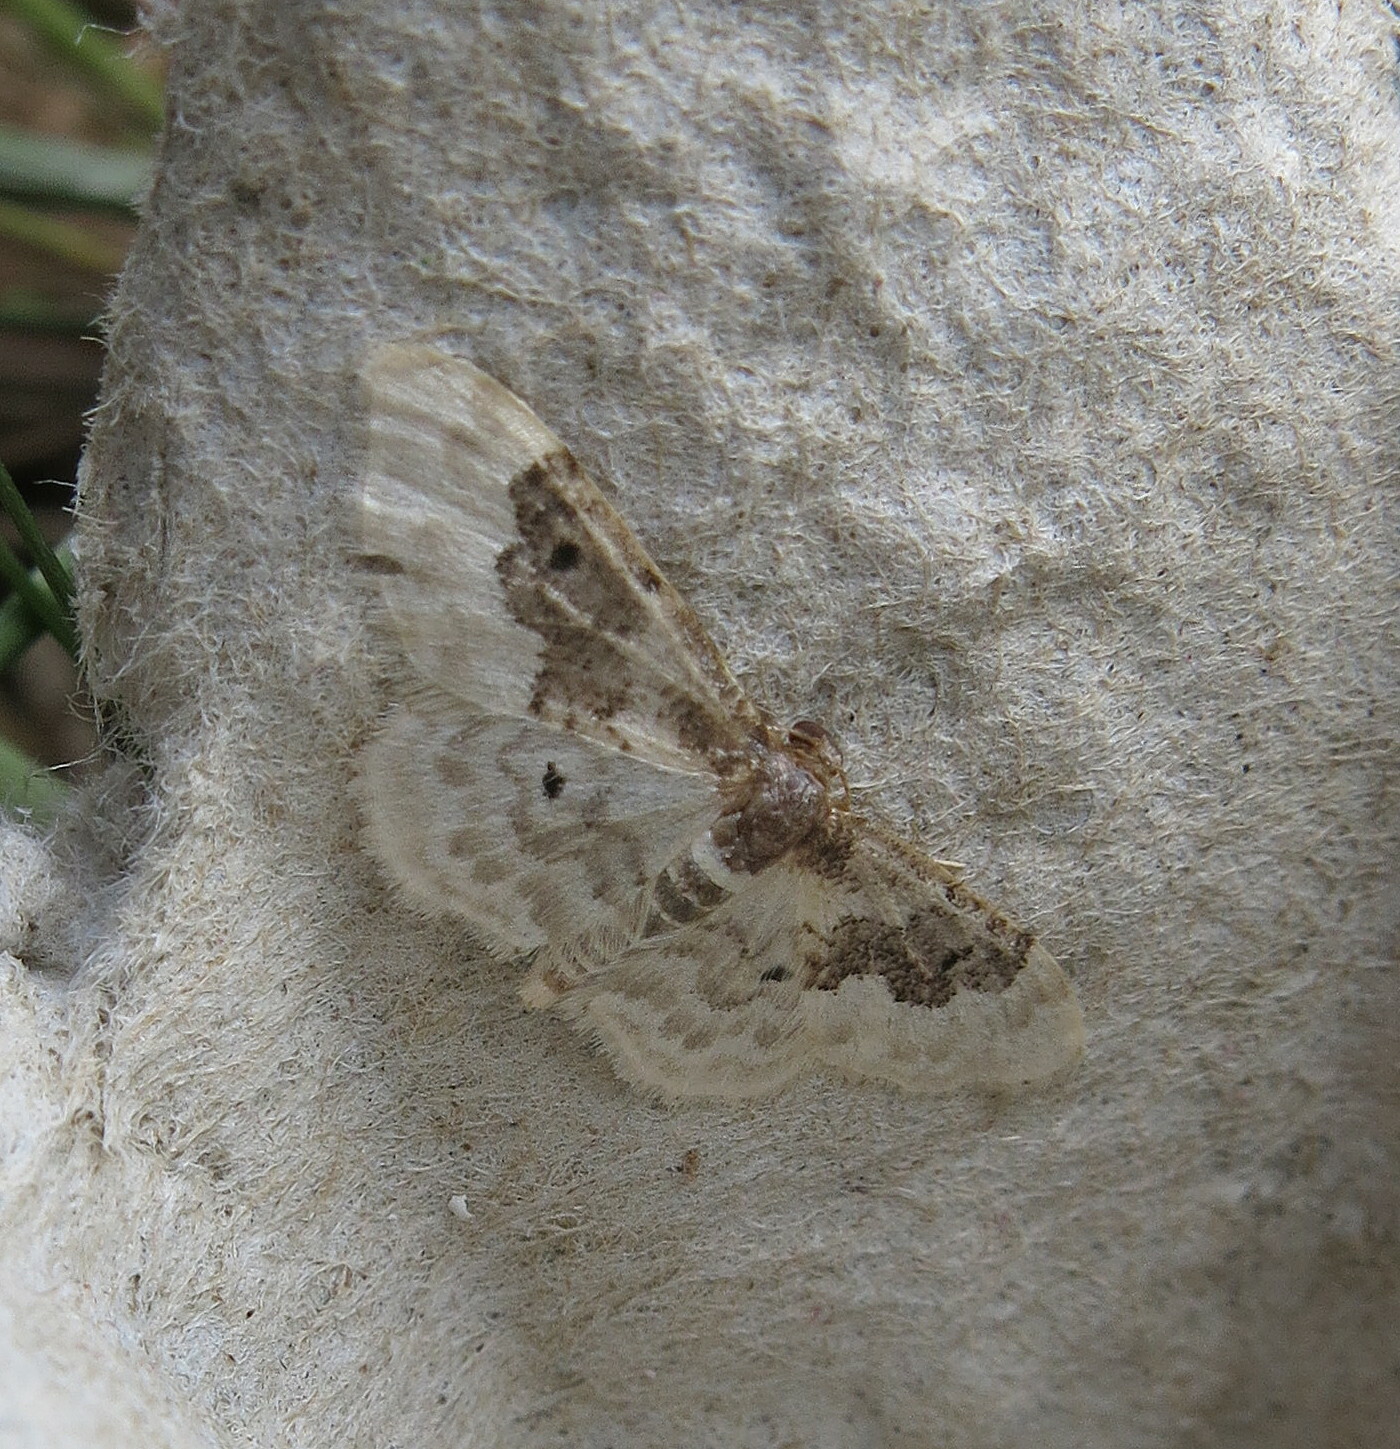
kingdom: Animalia
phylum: Arthropoda
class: Insecta
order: Lepidoptera
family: Geometridae
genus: Idaea
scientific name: Idaea rusticata
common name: Least carpet
